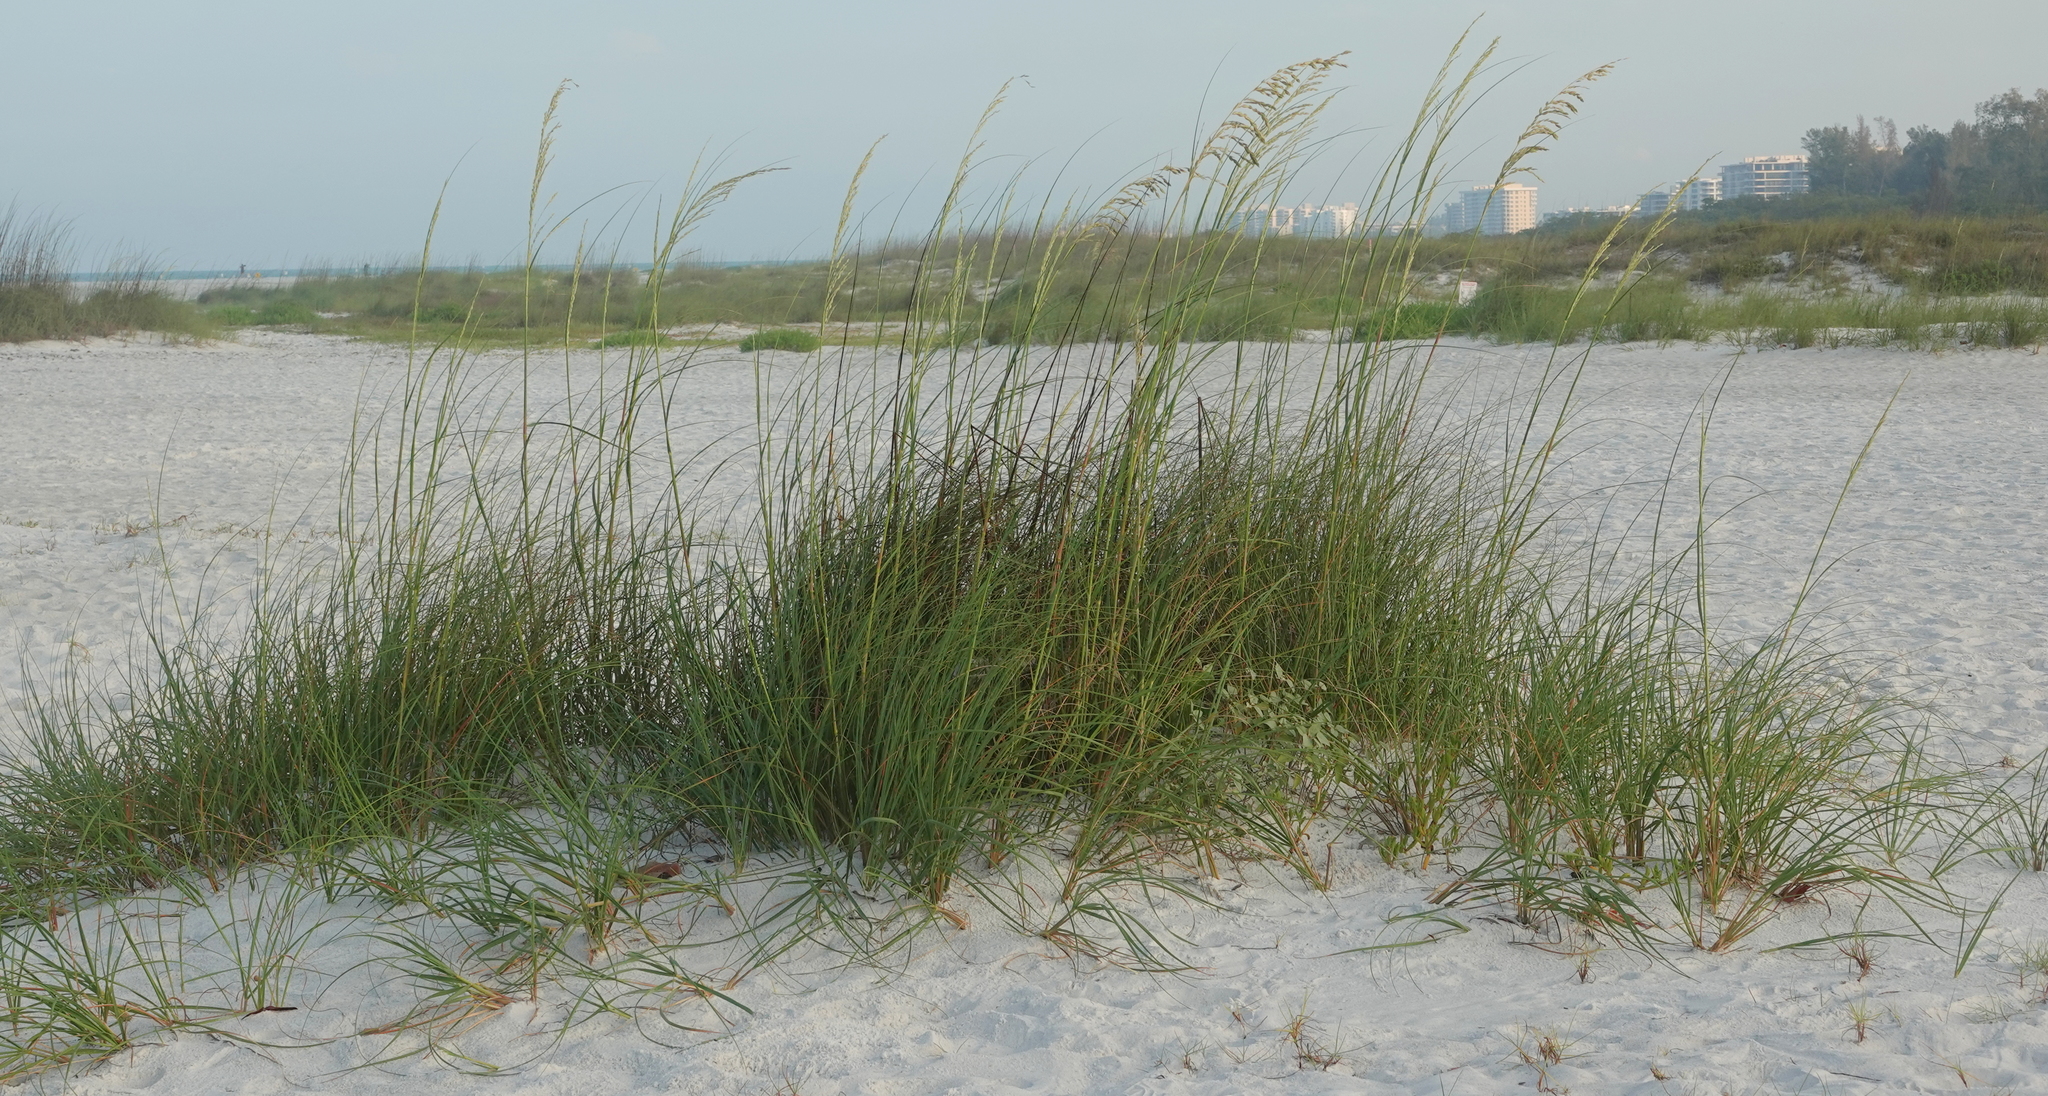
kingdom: Plantae
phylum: Tracheophyta
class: Liliopsida
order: Poales
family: Poaceae
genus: Uniola
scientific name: Uniola paniculata
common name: Seaside-oats
